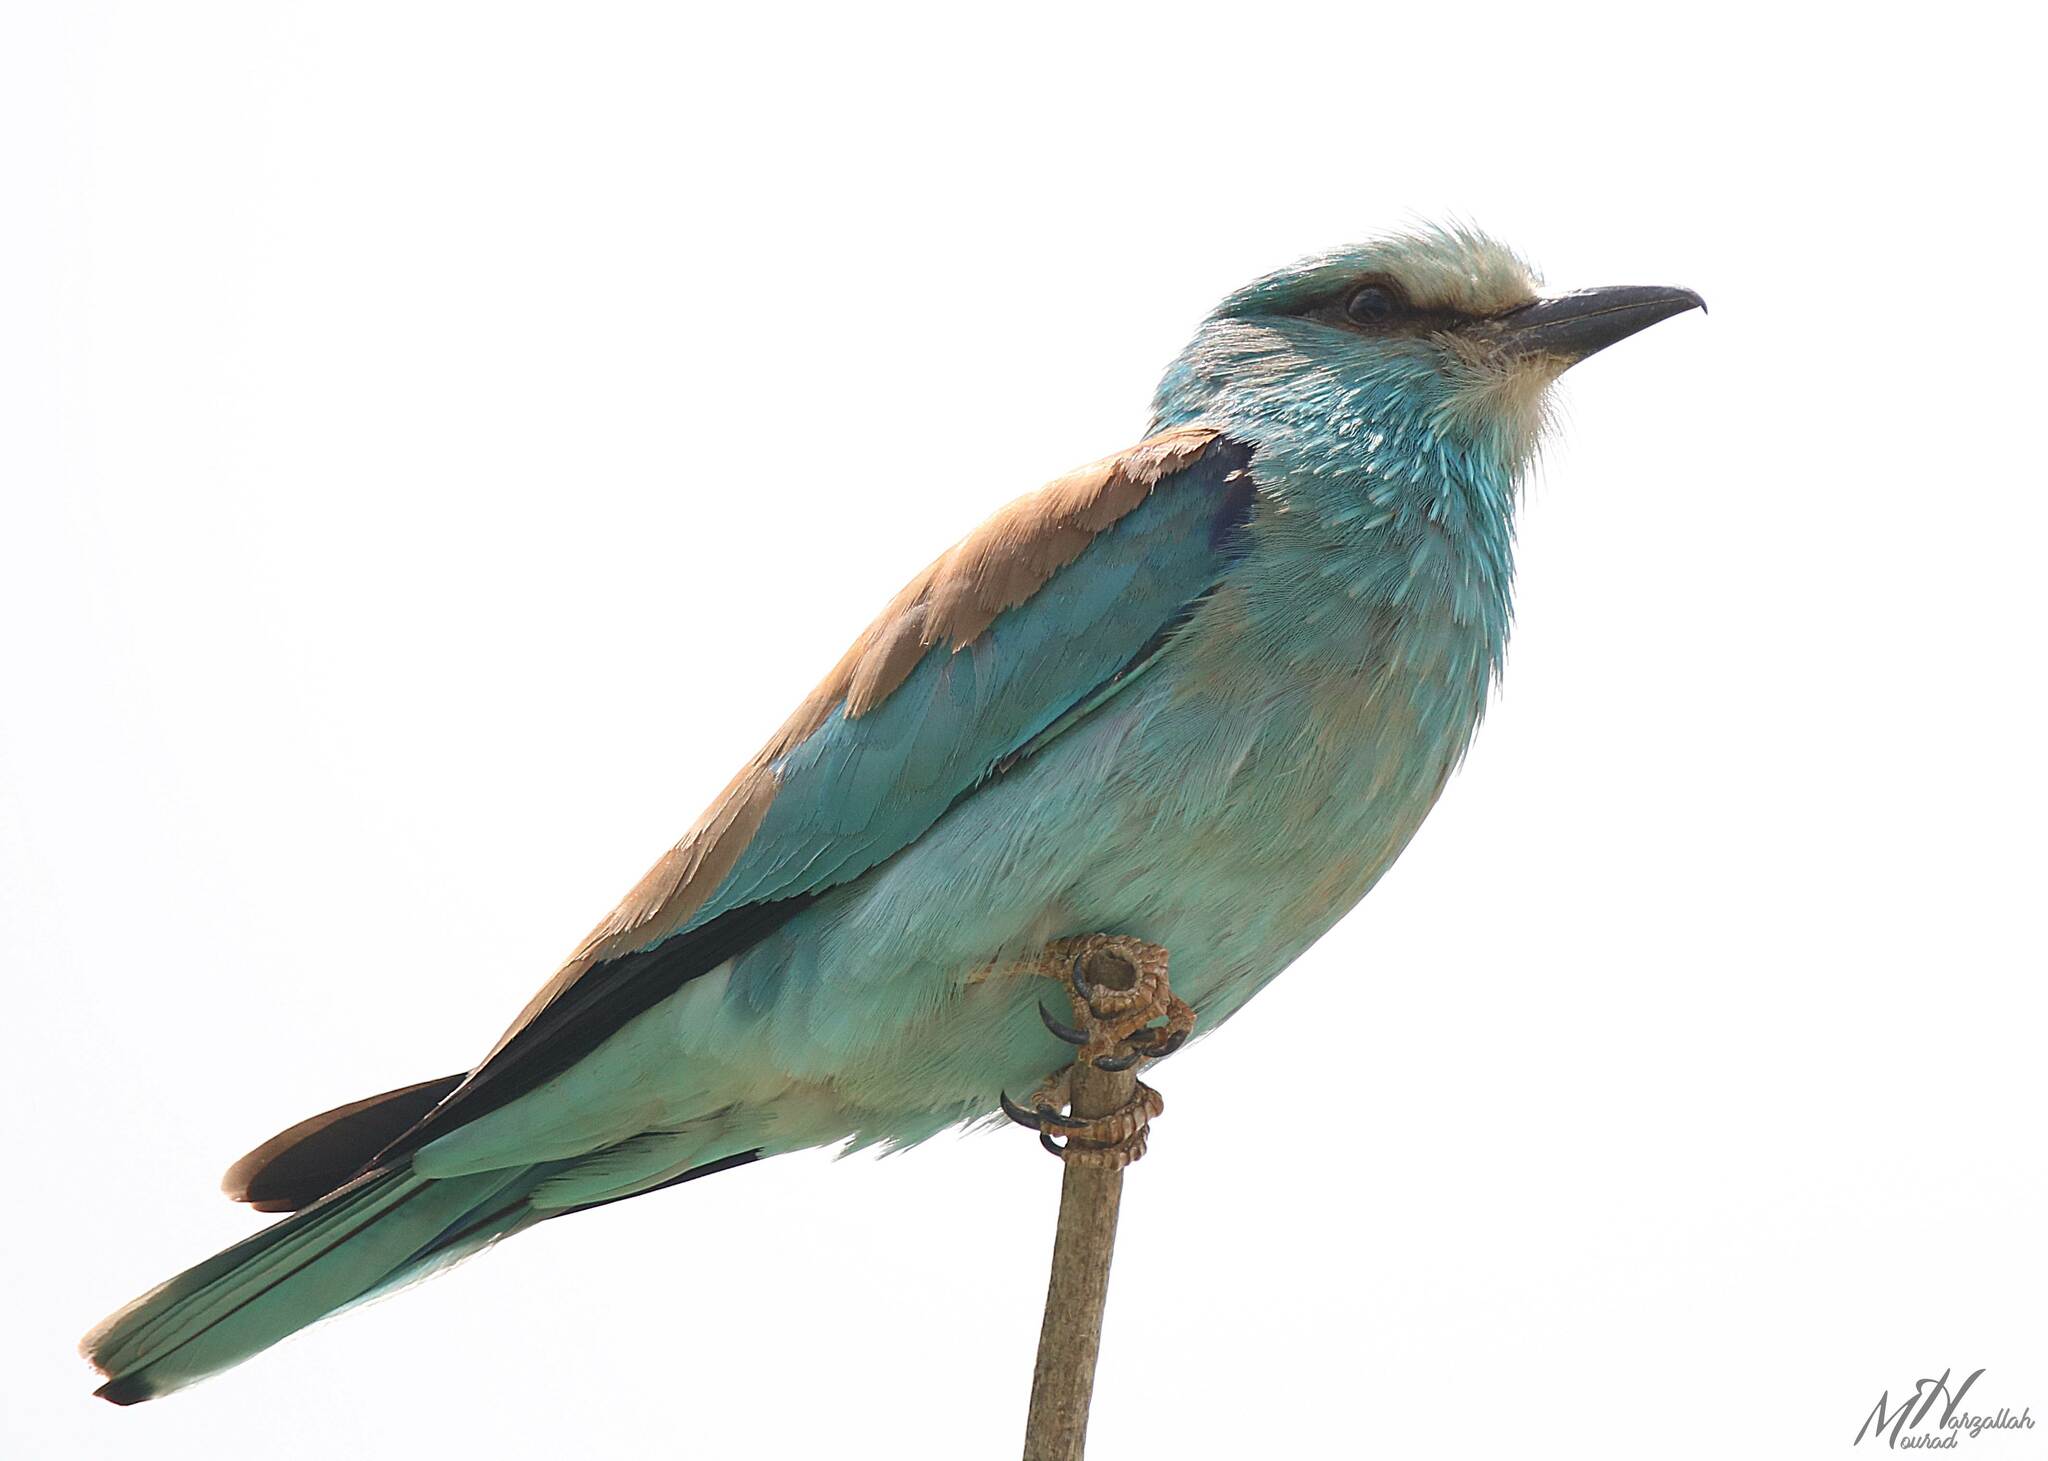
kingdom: Animalia
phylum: Chordata
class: Aves
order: Coraciiformes
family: Coraciidae
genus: Coracias
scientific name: Coracias garrulus
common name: European roller
